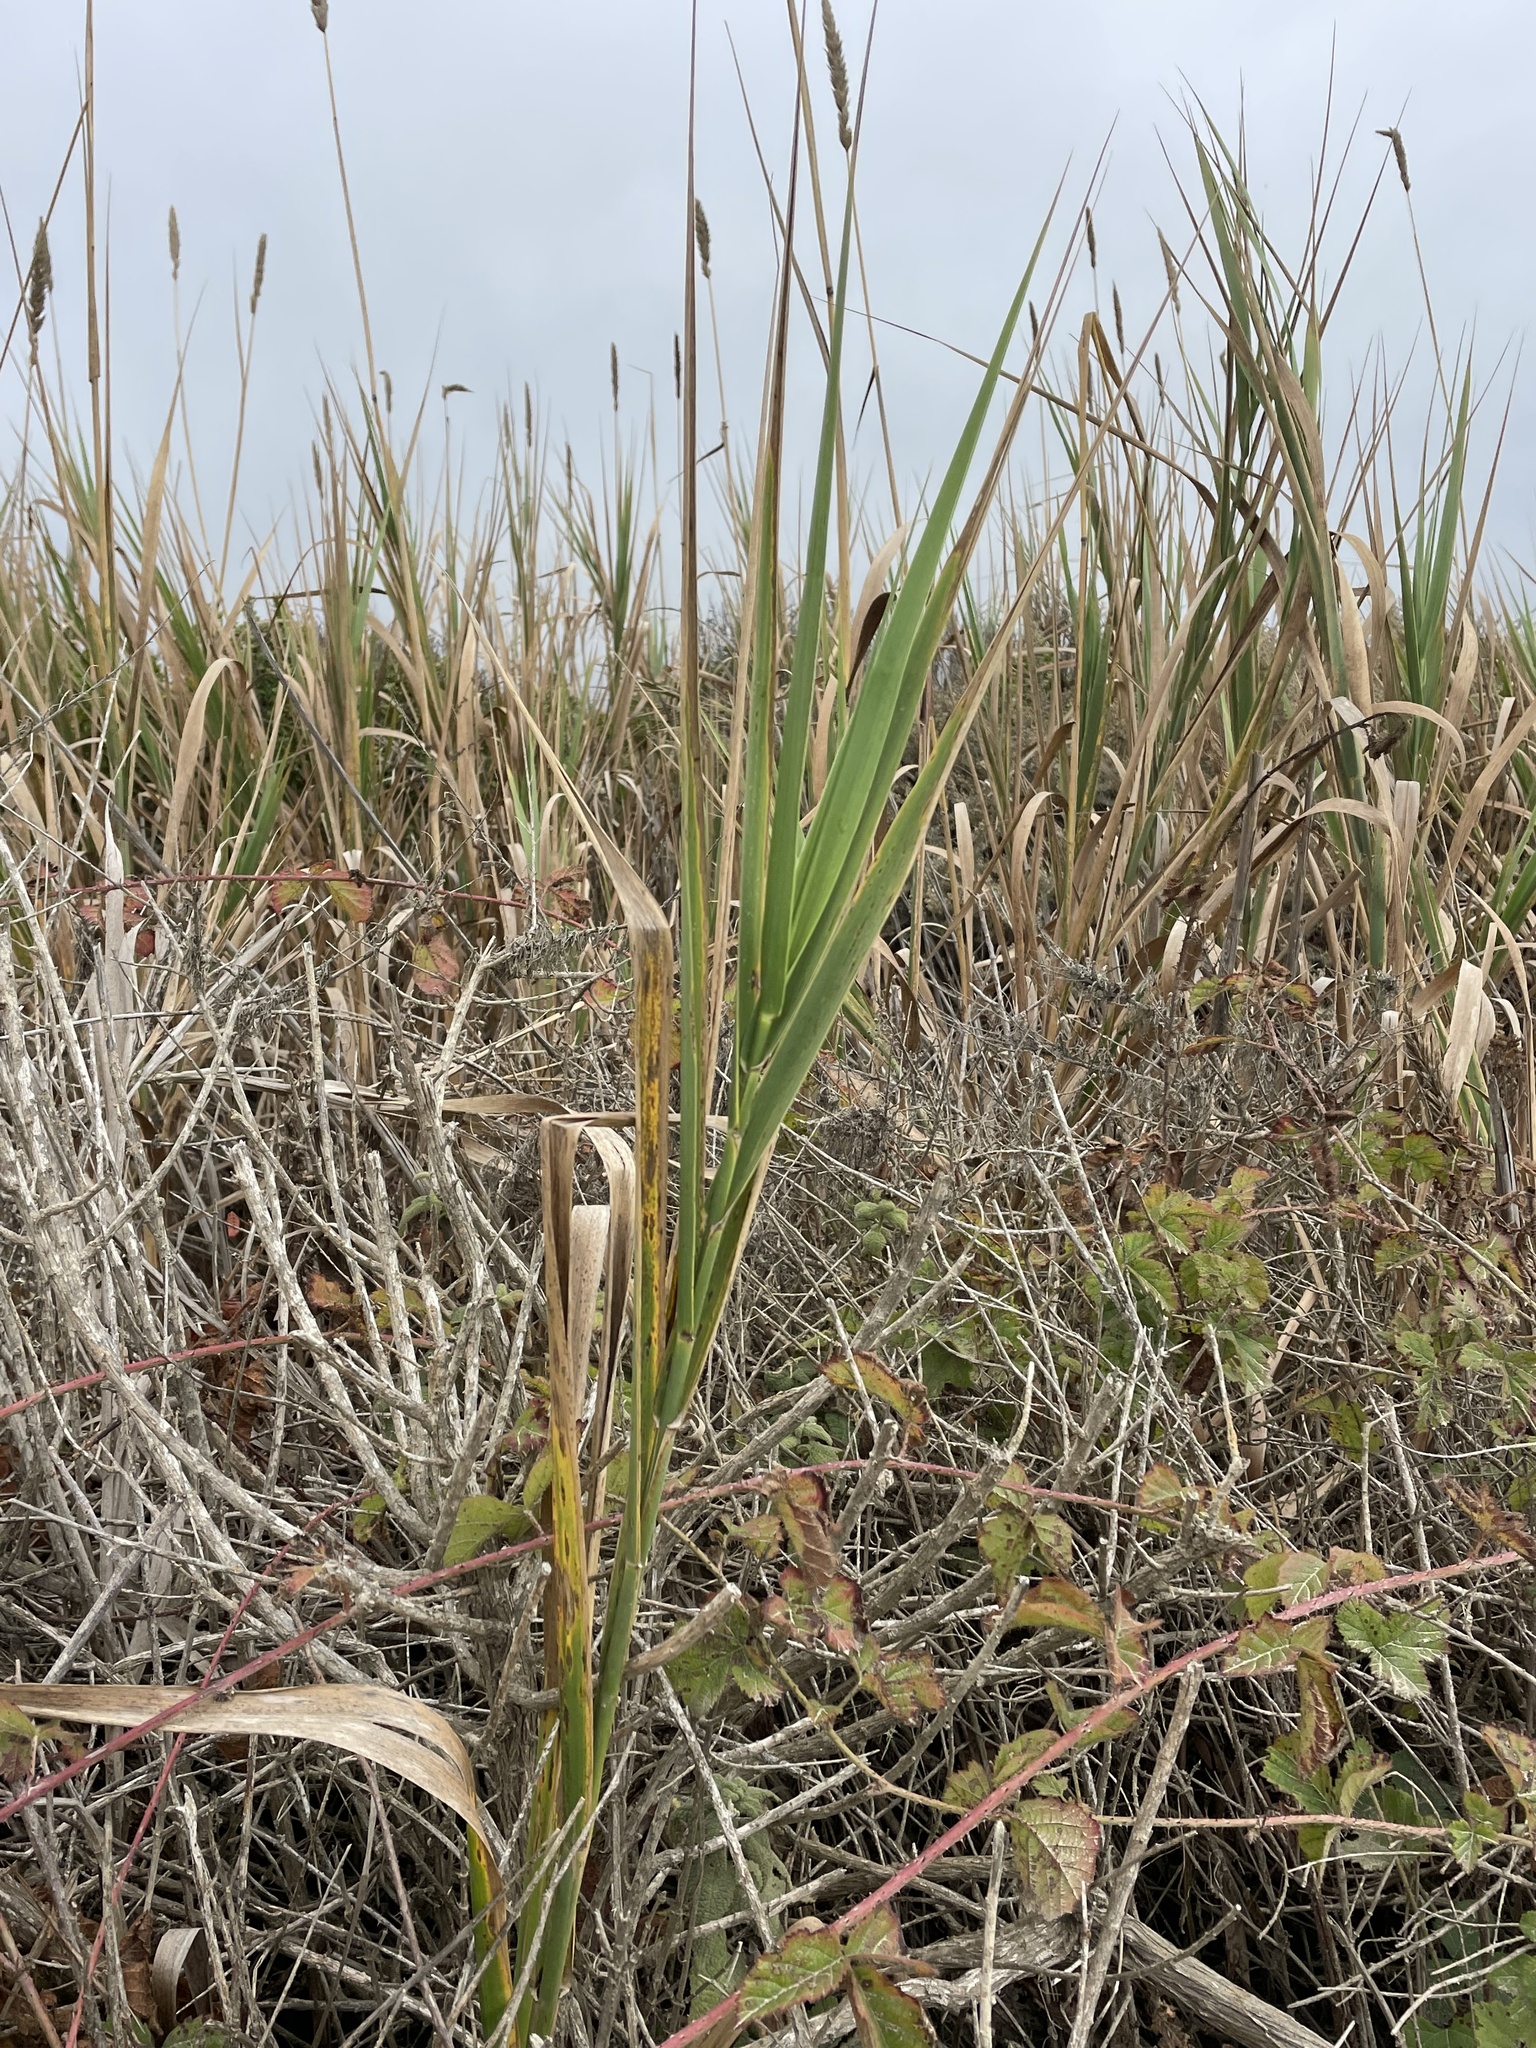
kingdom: Plantae
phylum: Tracheophyta
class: Liliopsida
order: Poales
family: Poaceae
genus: Leymus
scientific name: Leymus condensatus
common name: Giant wild rye
